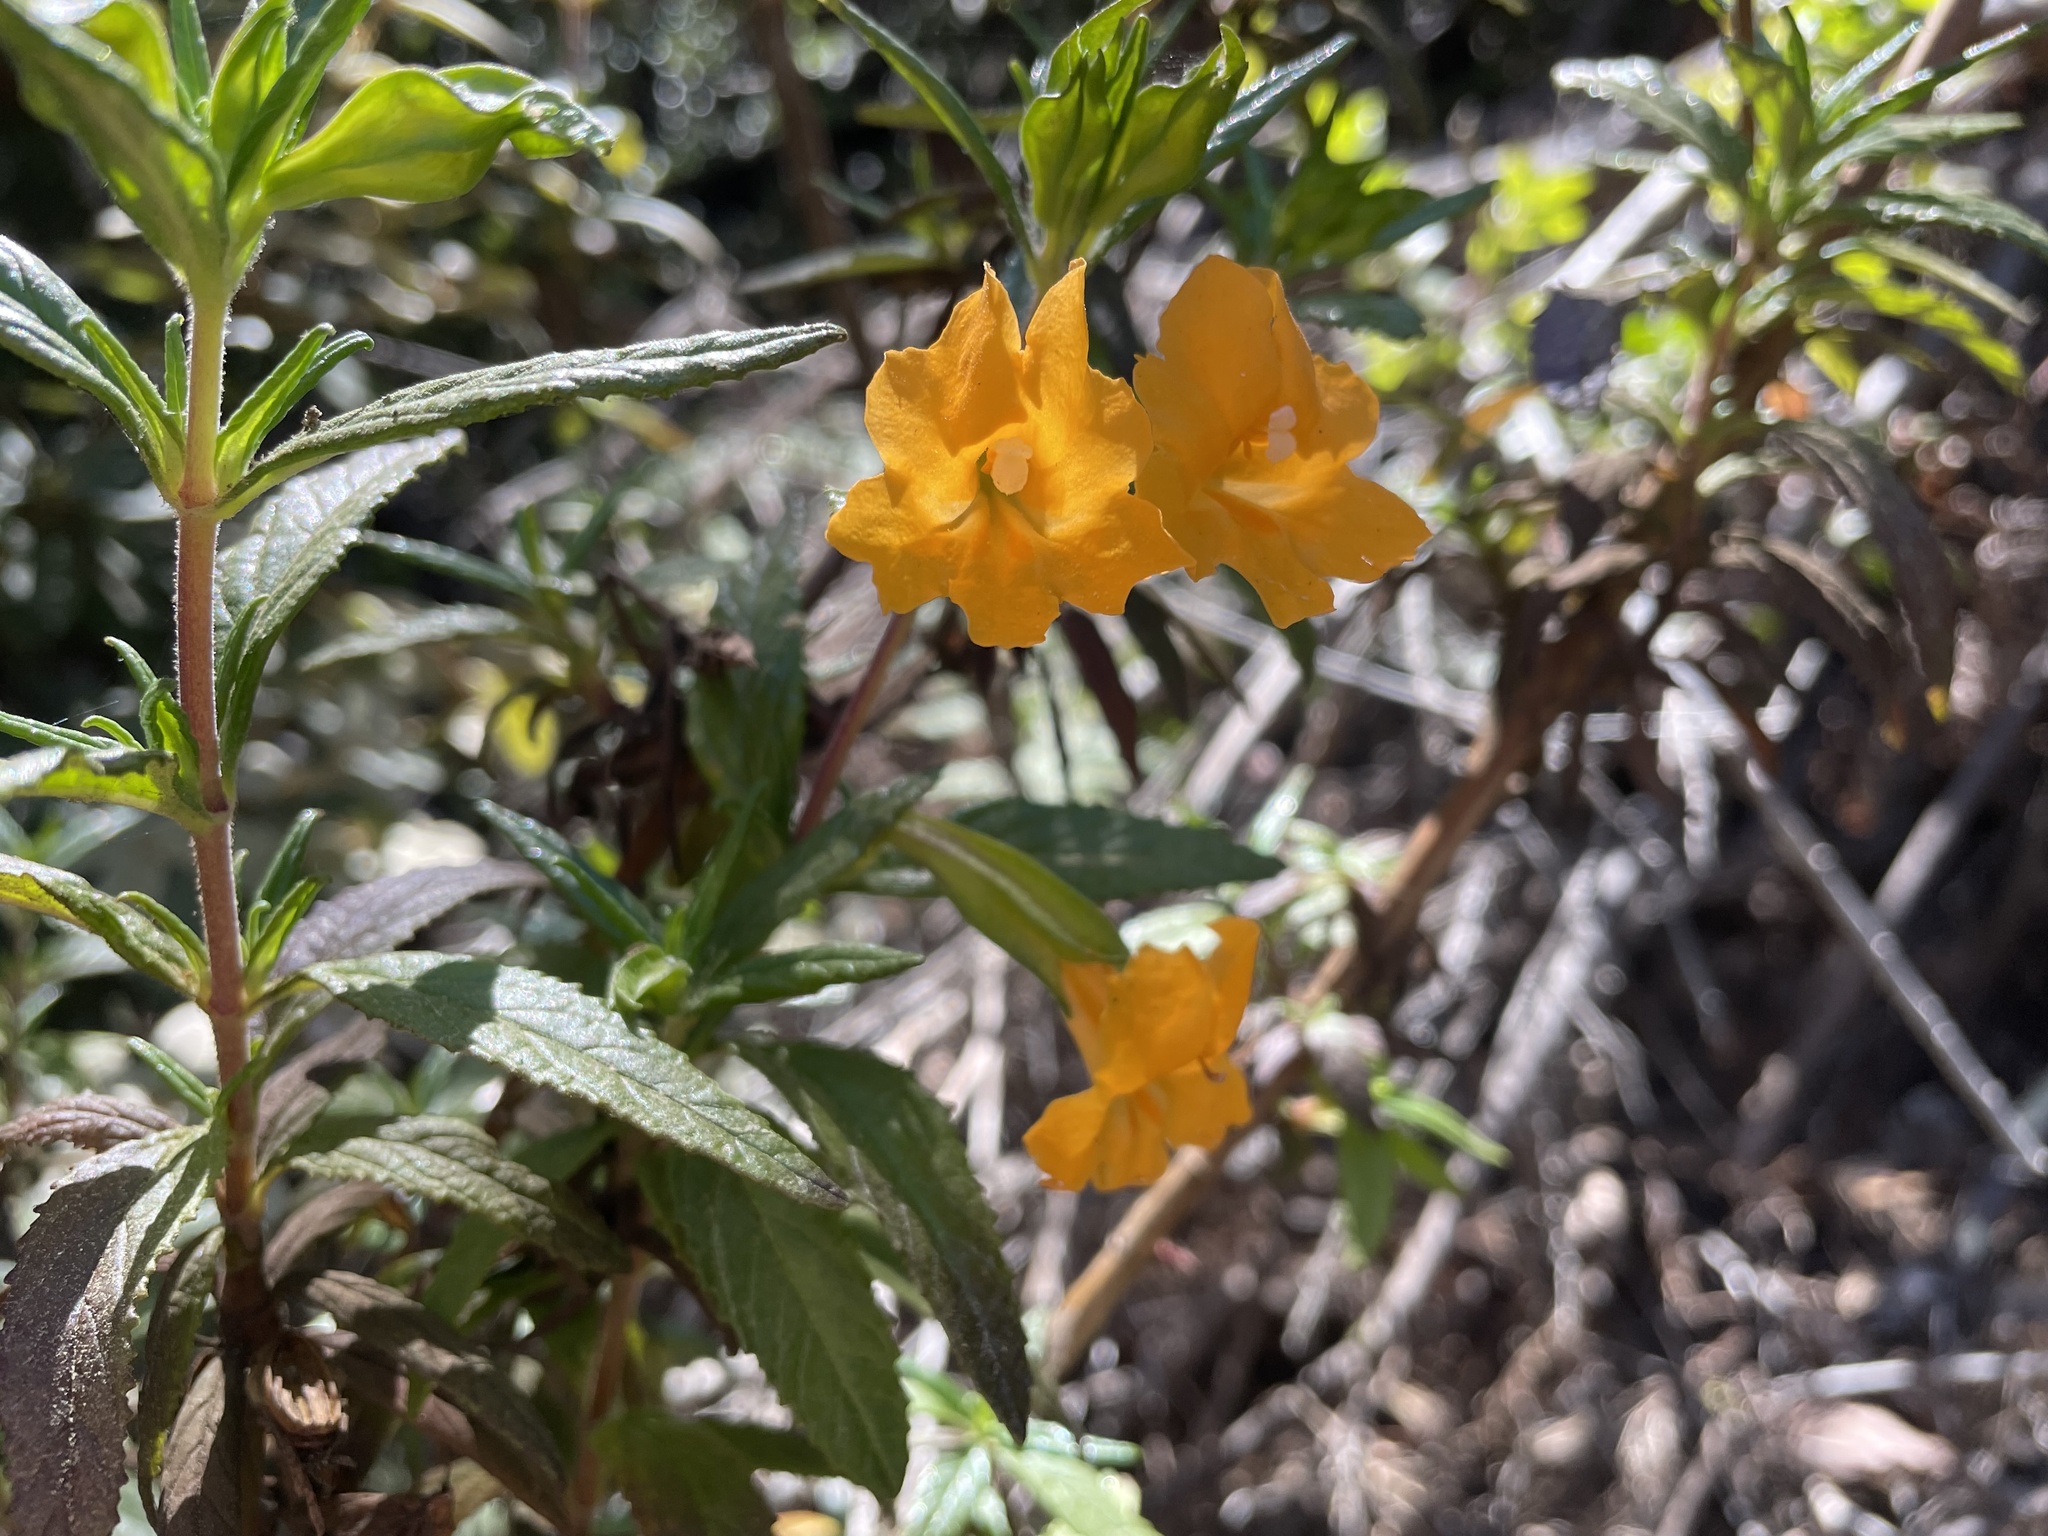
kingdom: Plantae
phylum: Tracheophyta
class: Magnoliopsida
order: Lamiales
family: Phrymaceae
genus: Diplacus
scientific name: Diplacus aurantiacus
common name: Bush monkey-flower
